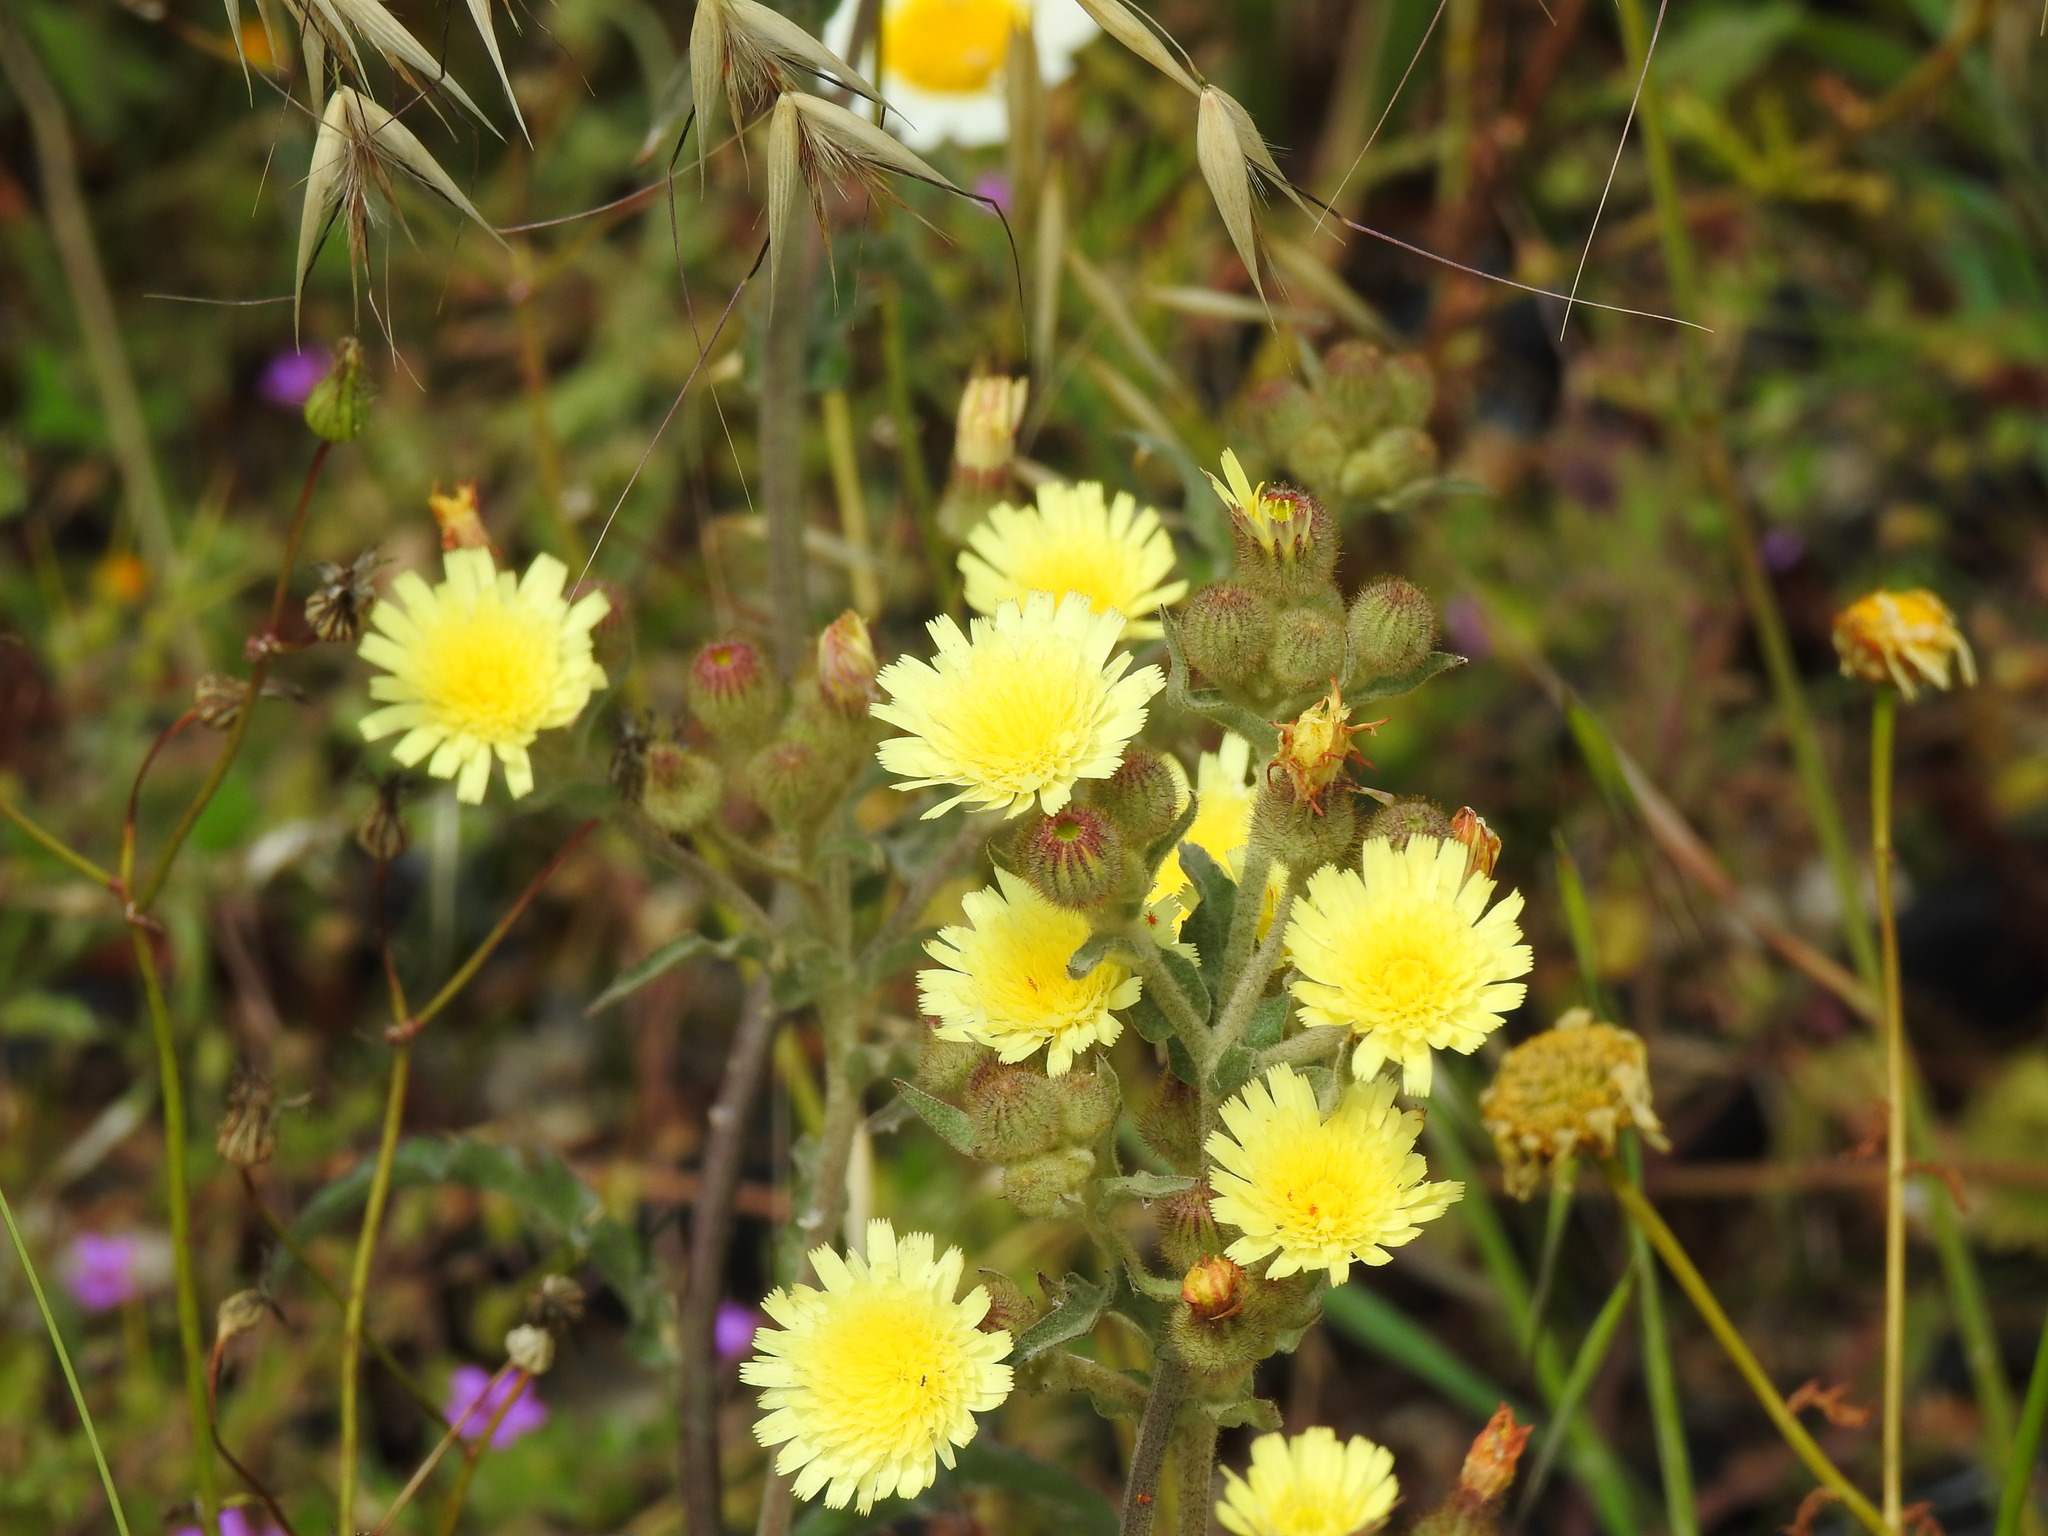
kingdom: Plantae
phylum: Tracheophyta
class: Magnoliopsida
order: Asterales
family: Asteraceae
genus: Andryala
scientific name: Andryala integrifolia
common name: Common andryala
